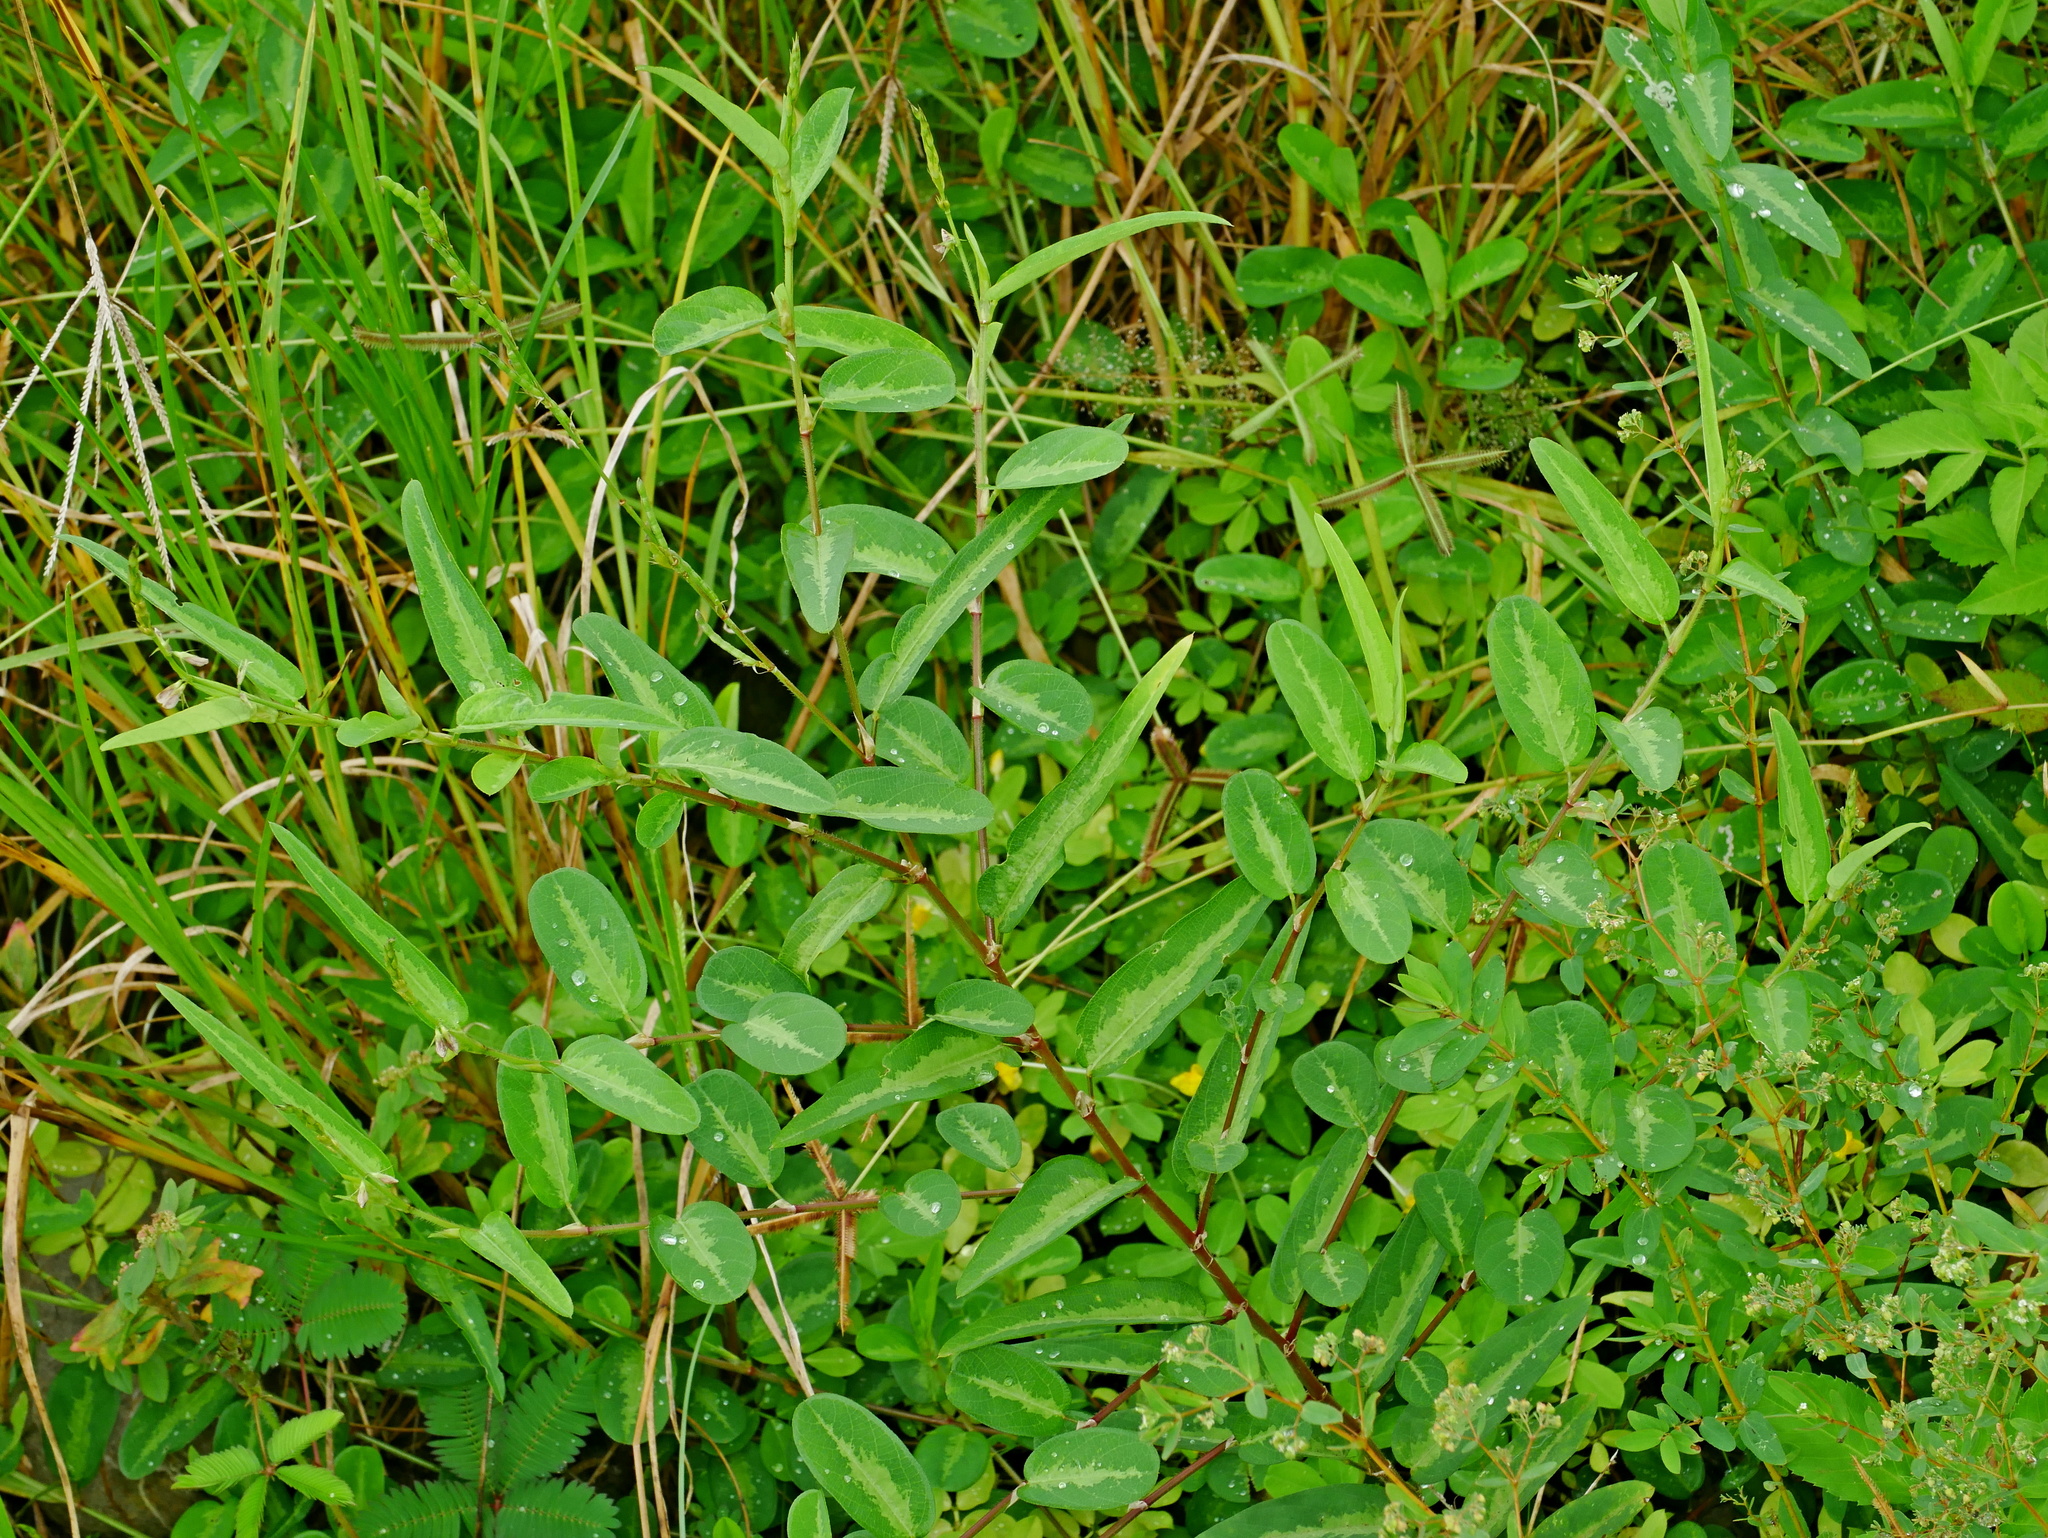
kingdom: Plantae
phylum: Tracheophyta
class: Magnoliopsida
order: Fabales
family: Fabaceae
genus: Alysicarpus
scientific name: Alysicarpus ovalifolius
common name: Alyce clover
